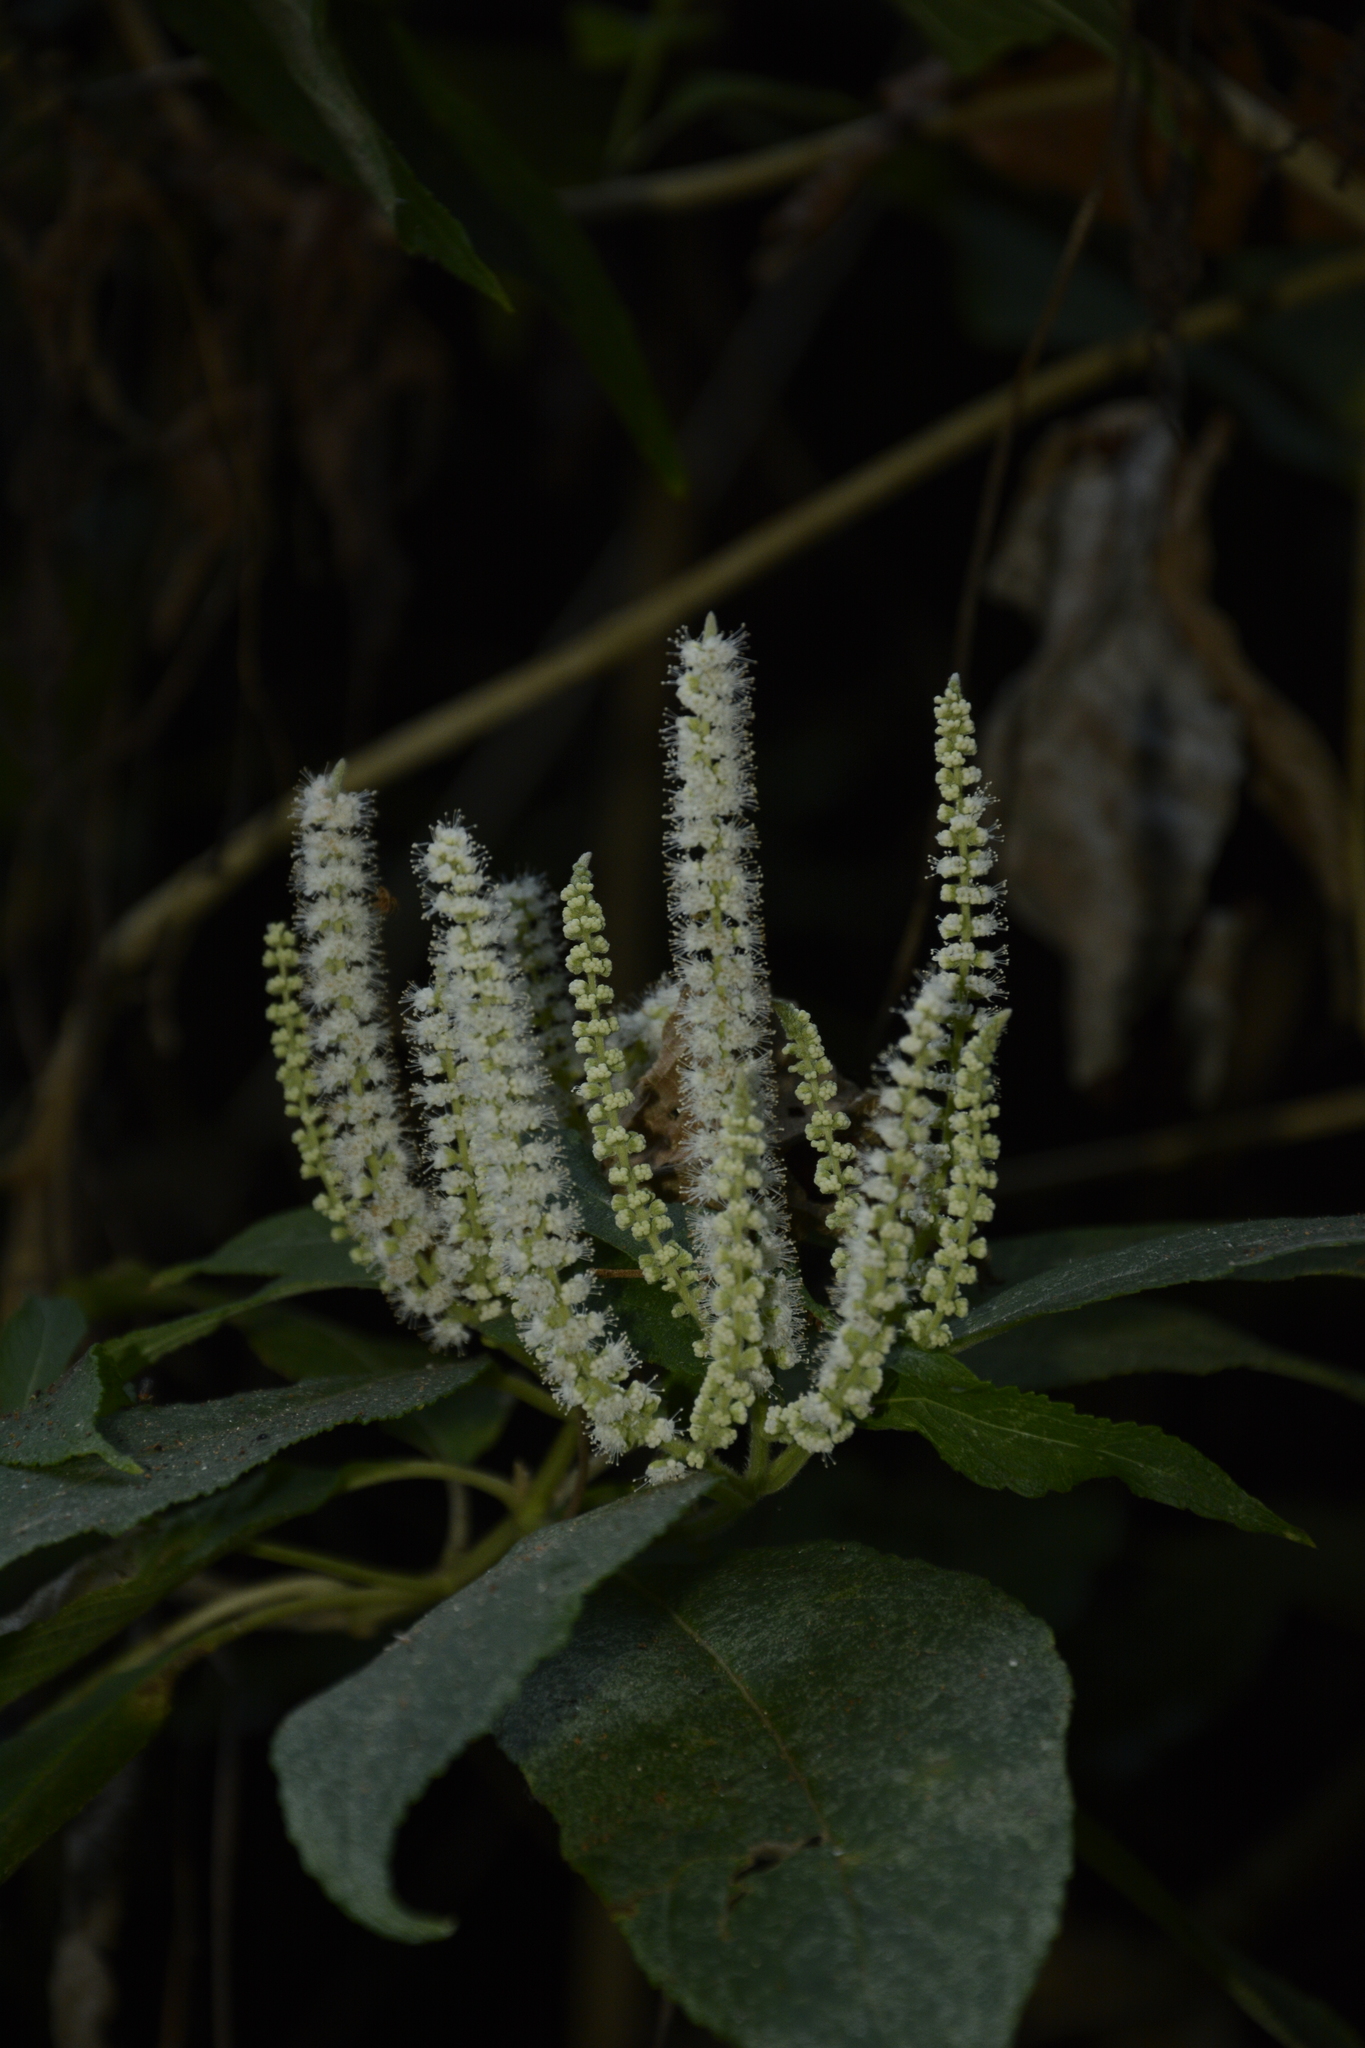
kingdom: Plantae
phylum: Tracheophyta
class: Magnoliopsida
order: Lamiales
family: Lamiaceae
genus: Colebrookea
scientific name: Colebrookea oppositifolia
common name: Indian squirrel tail
